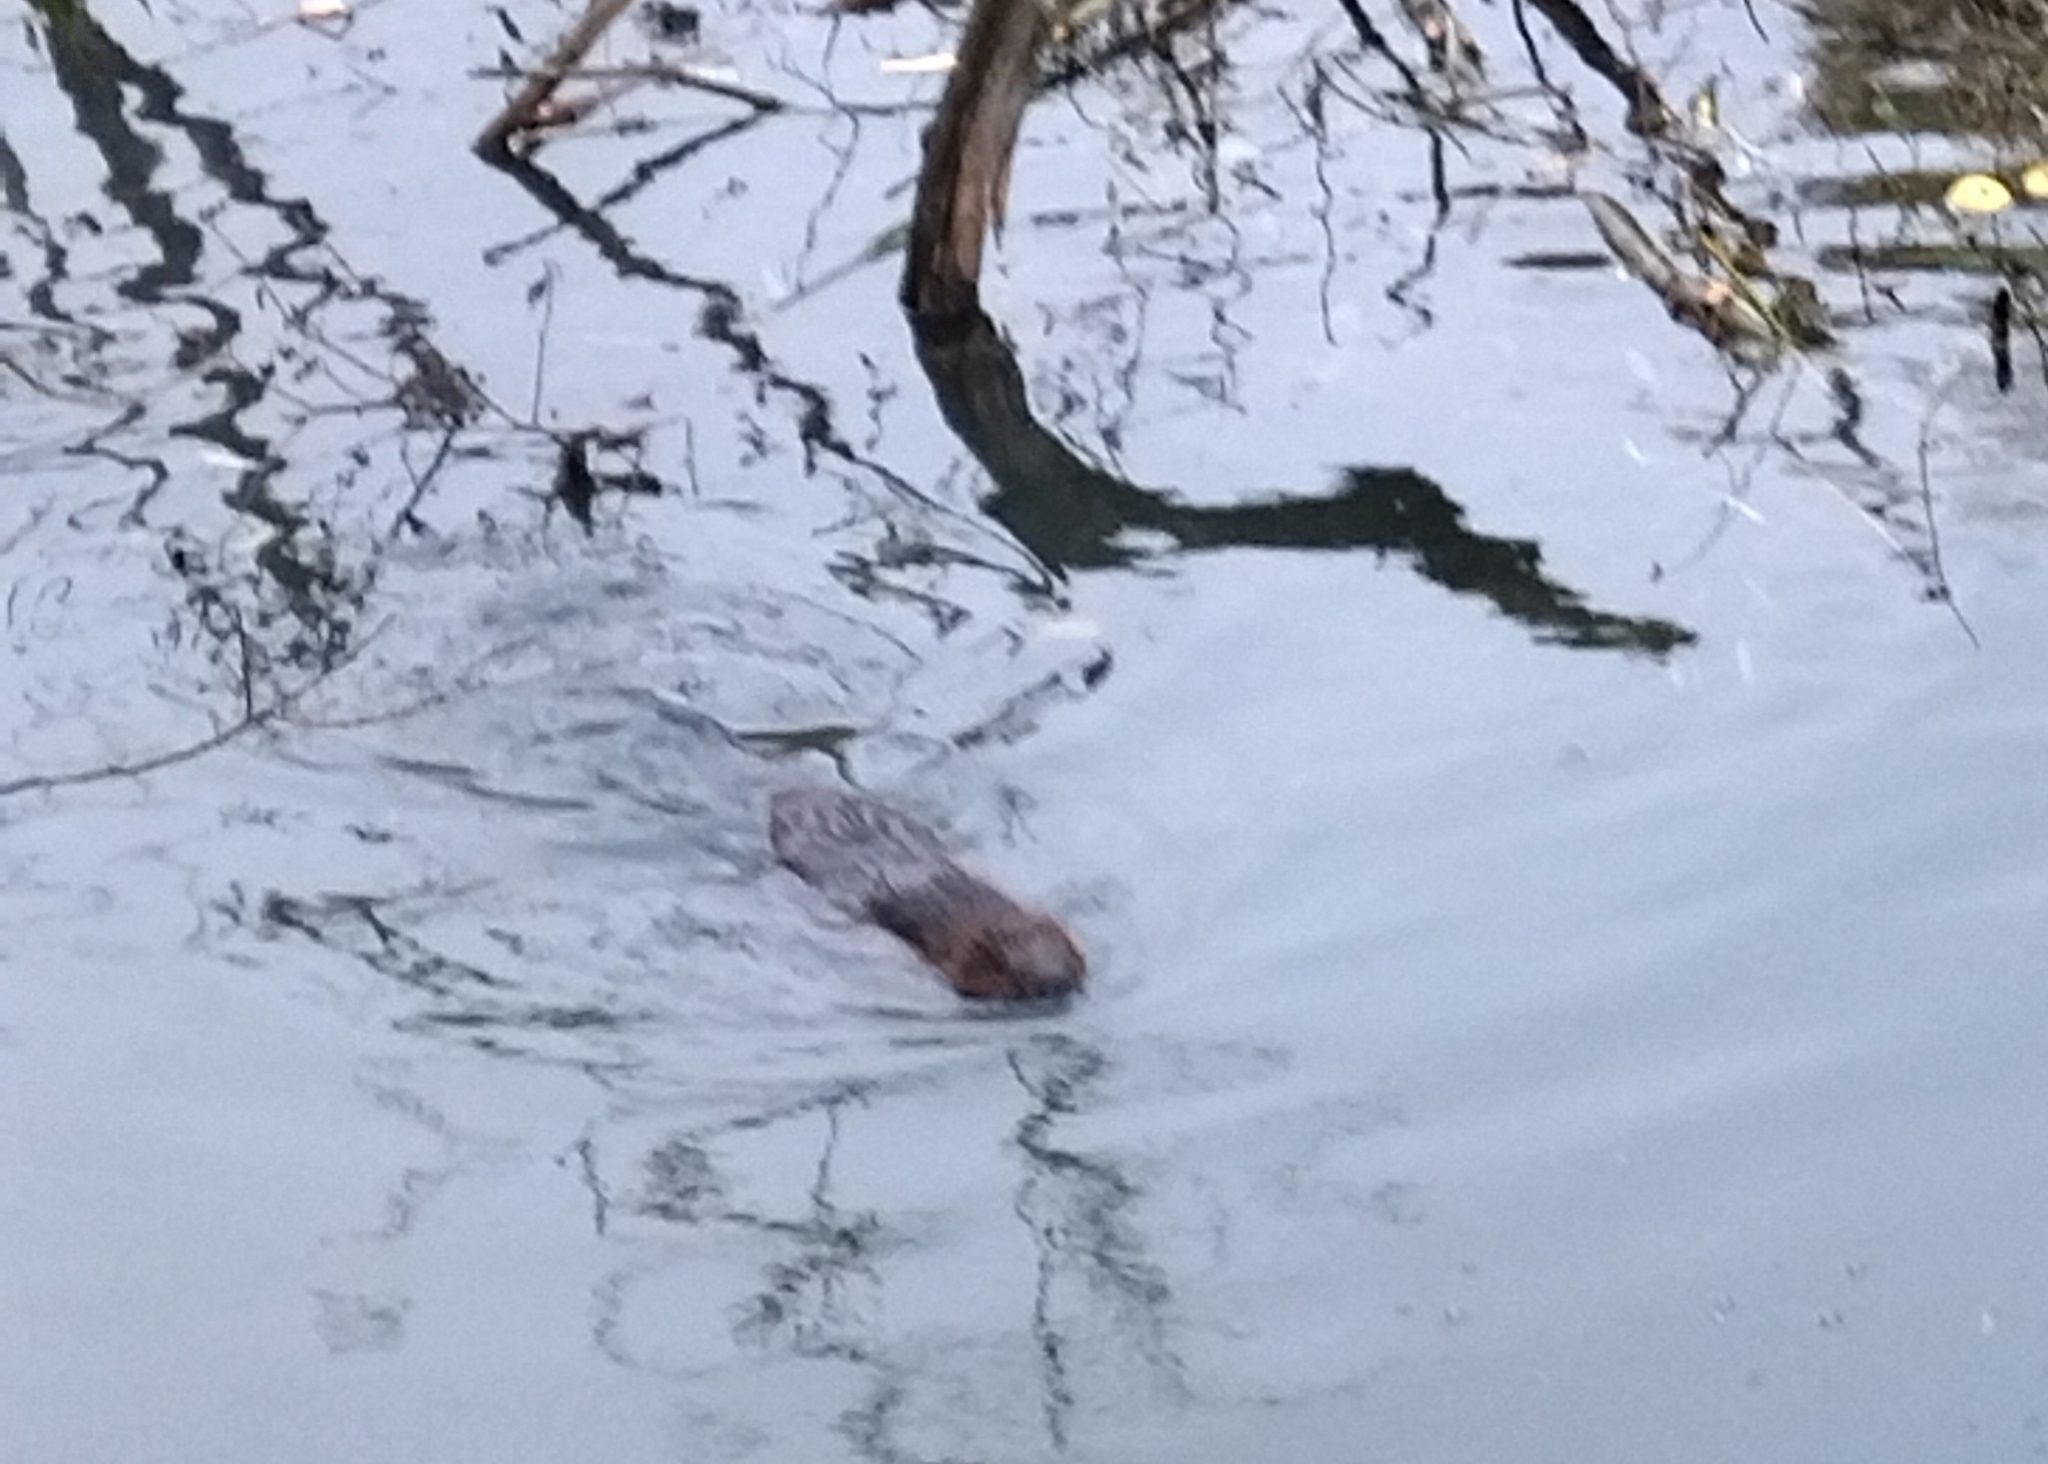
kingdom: Animalia
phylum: Chordata
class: Mammalia
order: Rodentia
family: Castoridae
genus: Castor
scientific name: Castor fiber
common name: Eurasian beaver
